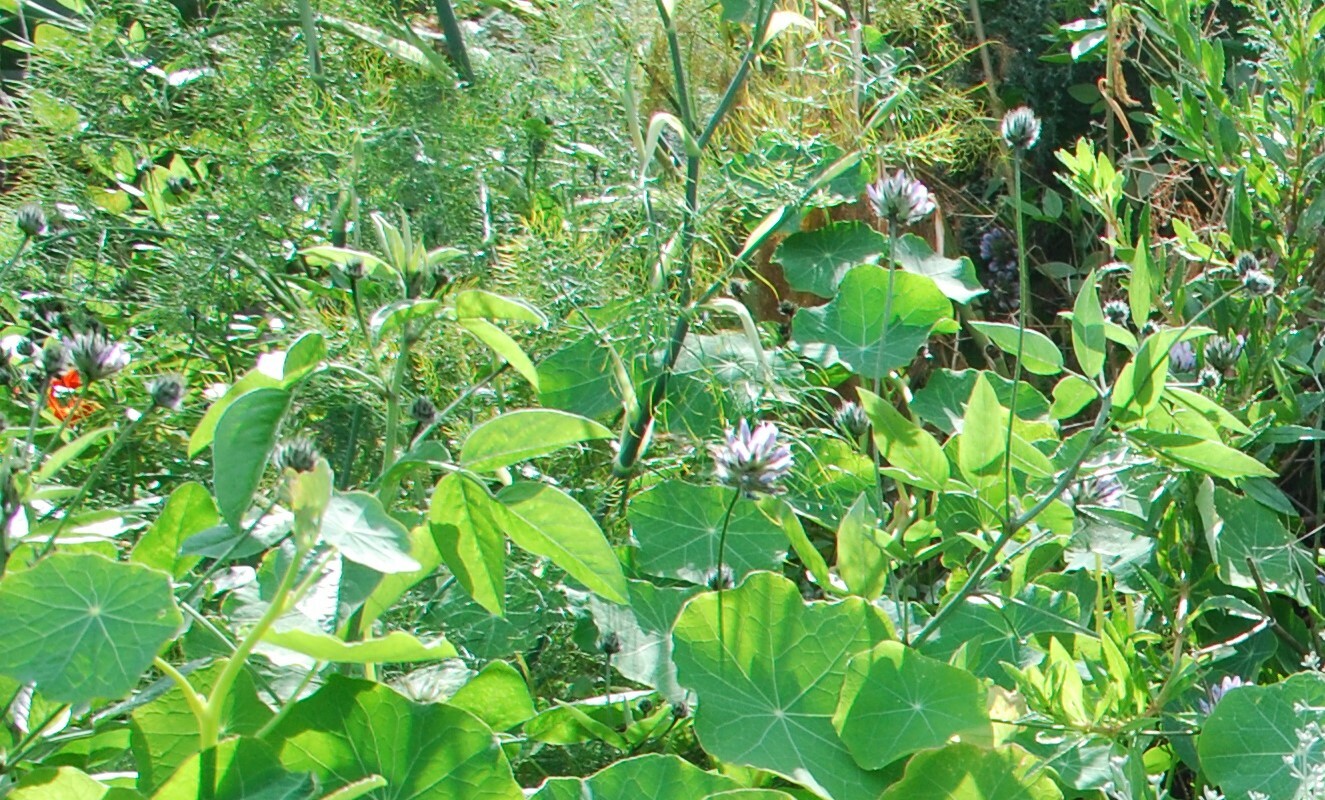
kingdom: Plantae
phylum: Tracheophyta
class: Magnoliopsida
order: Fabales
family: Fabaceae
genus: Bituminaria
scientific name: Bituminaria bituminosa
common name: Arabian pea
